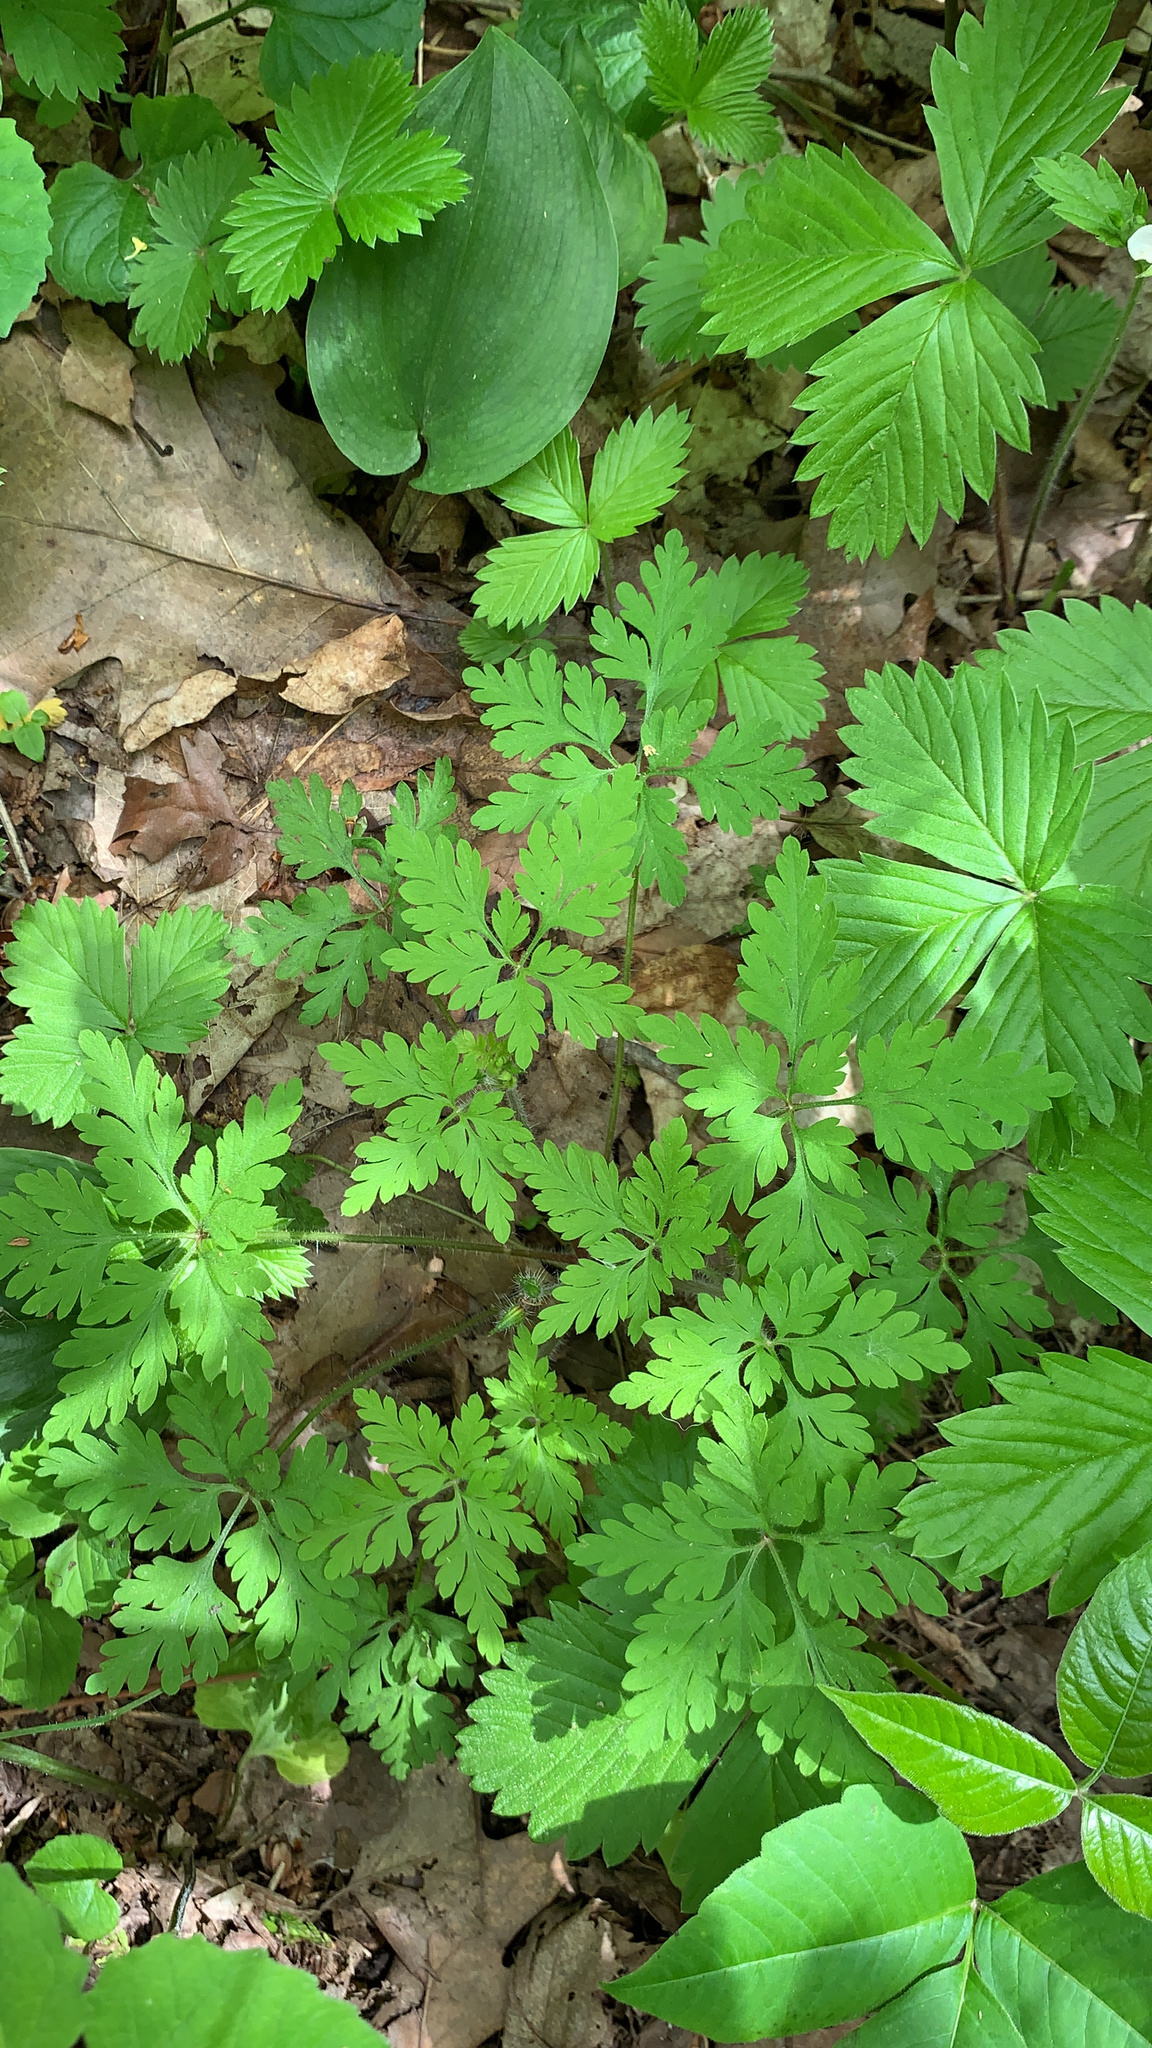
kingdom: Plantae
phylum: Tracheophyta
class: Magnoliopsida
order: Geraniales
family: Geraniaceae
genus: Geranium
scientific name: Geranium robertianum
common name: Herb-robert
